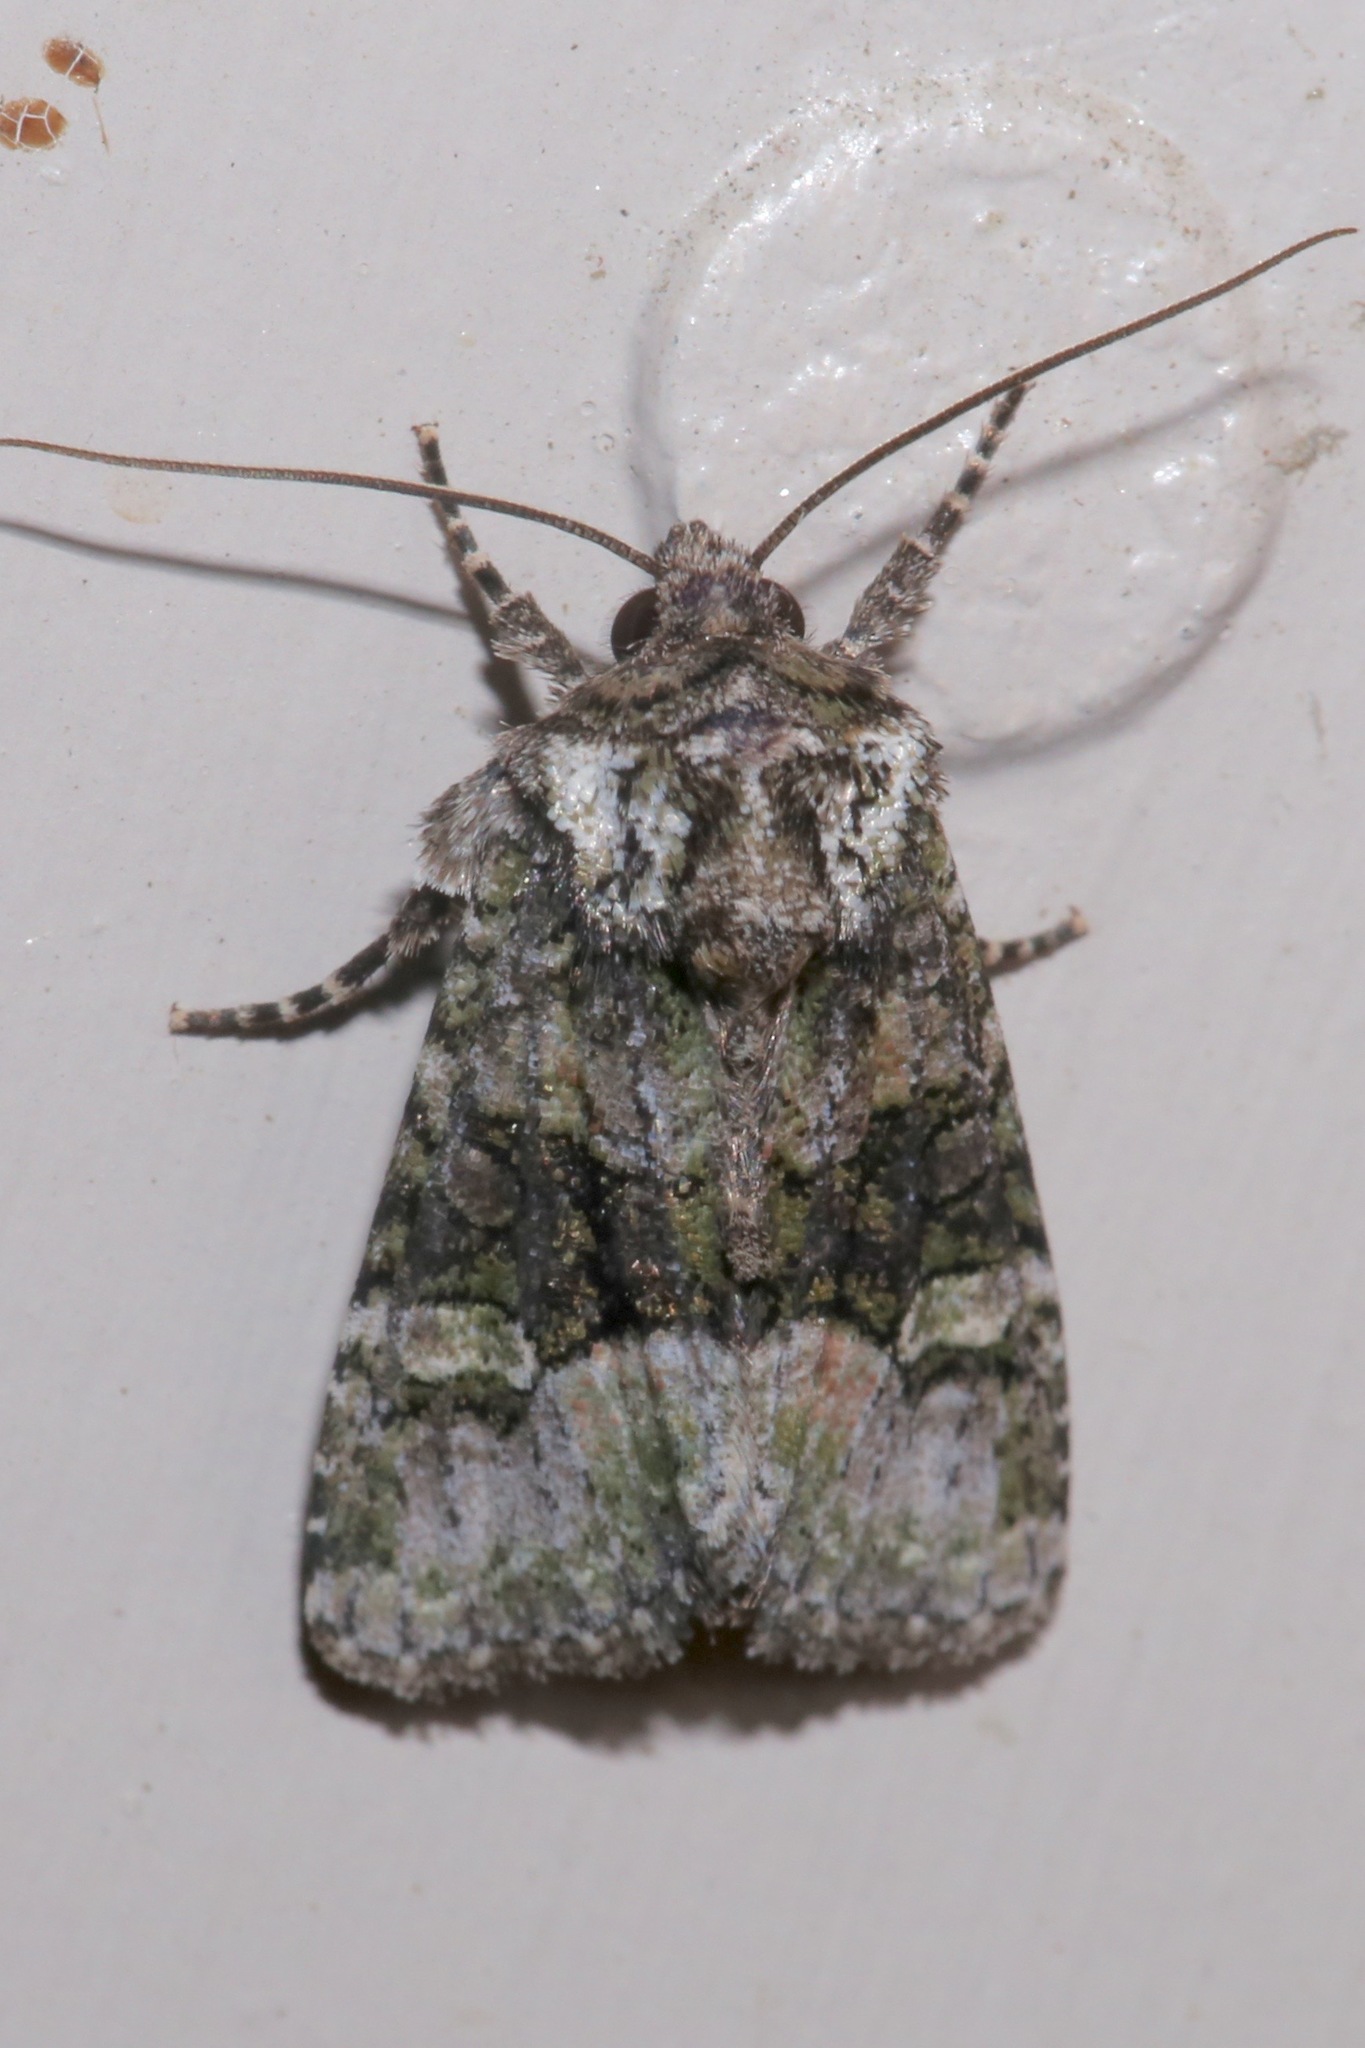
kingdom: Animalia
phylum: Arthropoda
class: Insecta
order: Lepidoptera
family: Noctuidae
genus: Lacinipolia
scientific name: Lacinipolia olivacea
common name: Olive arches moth
